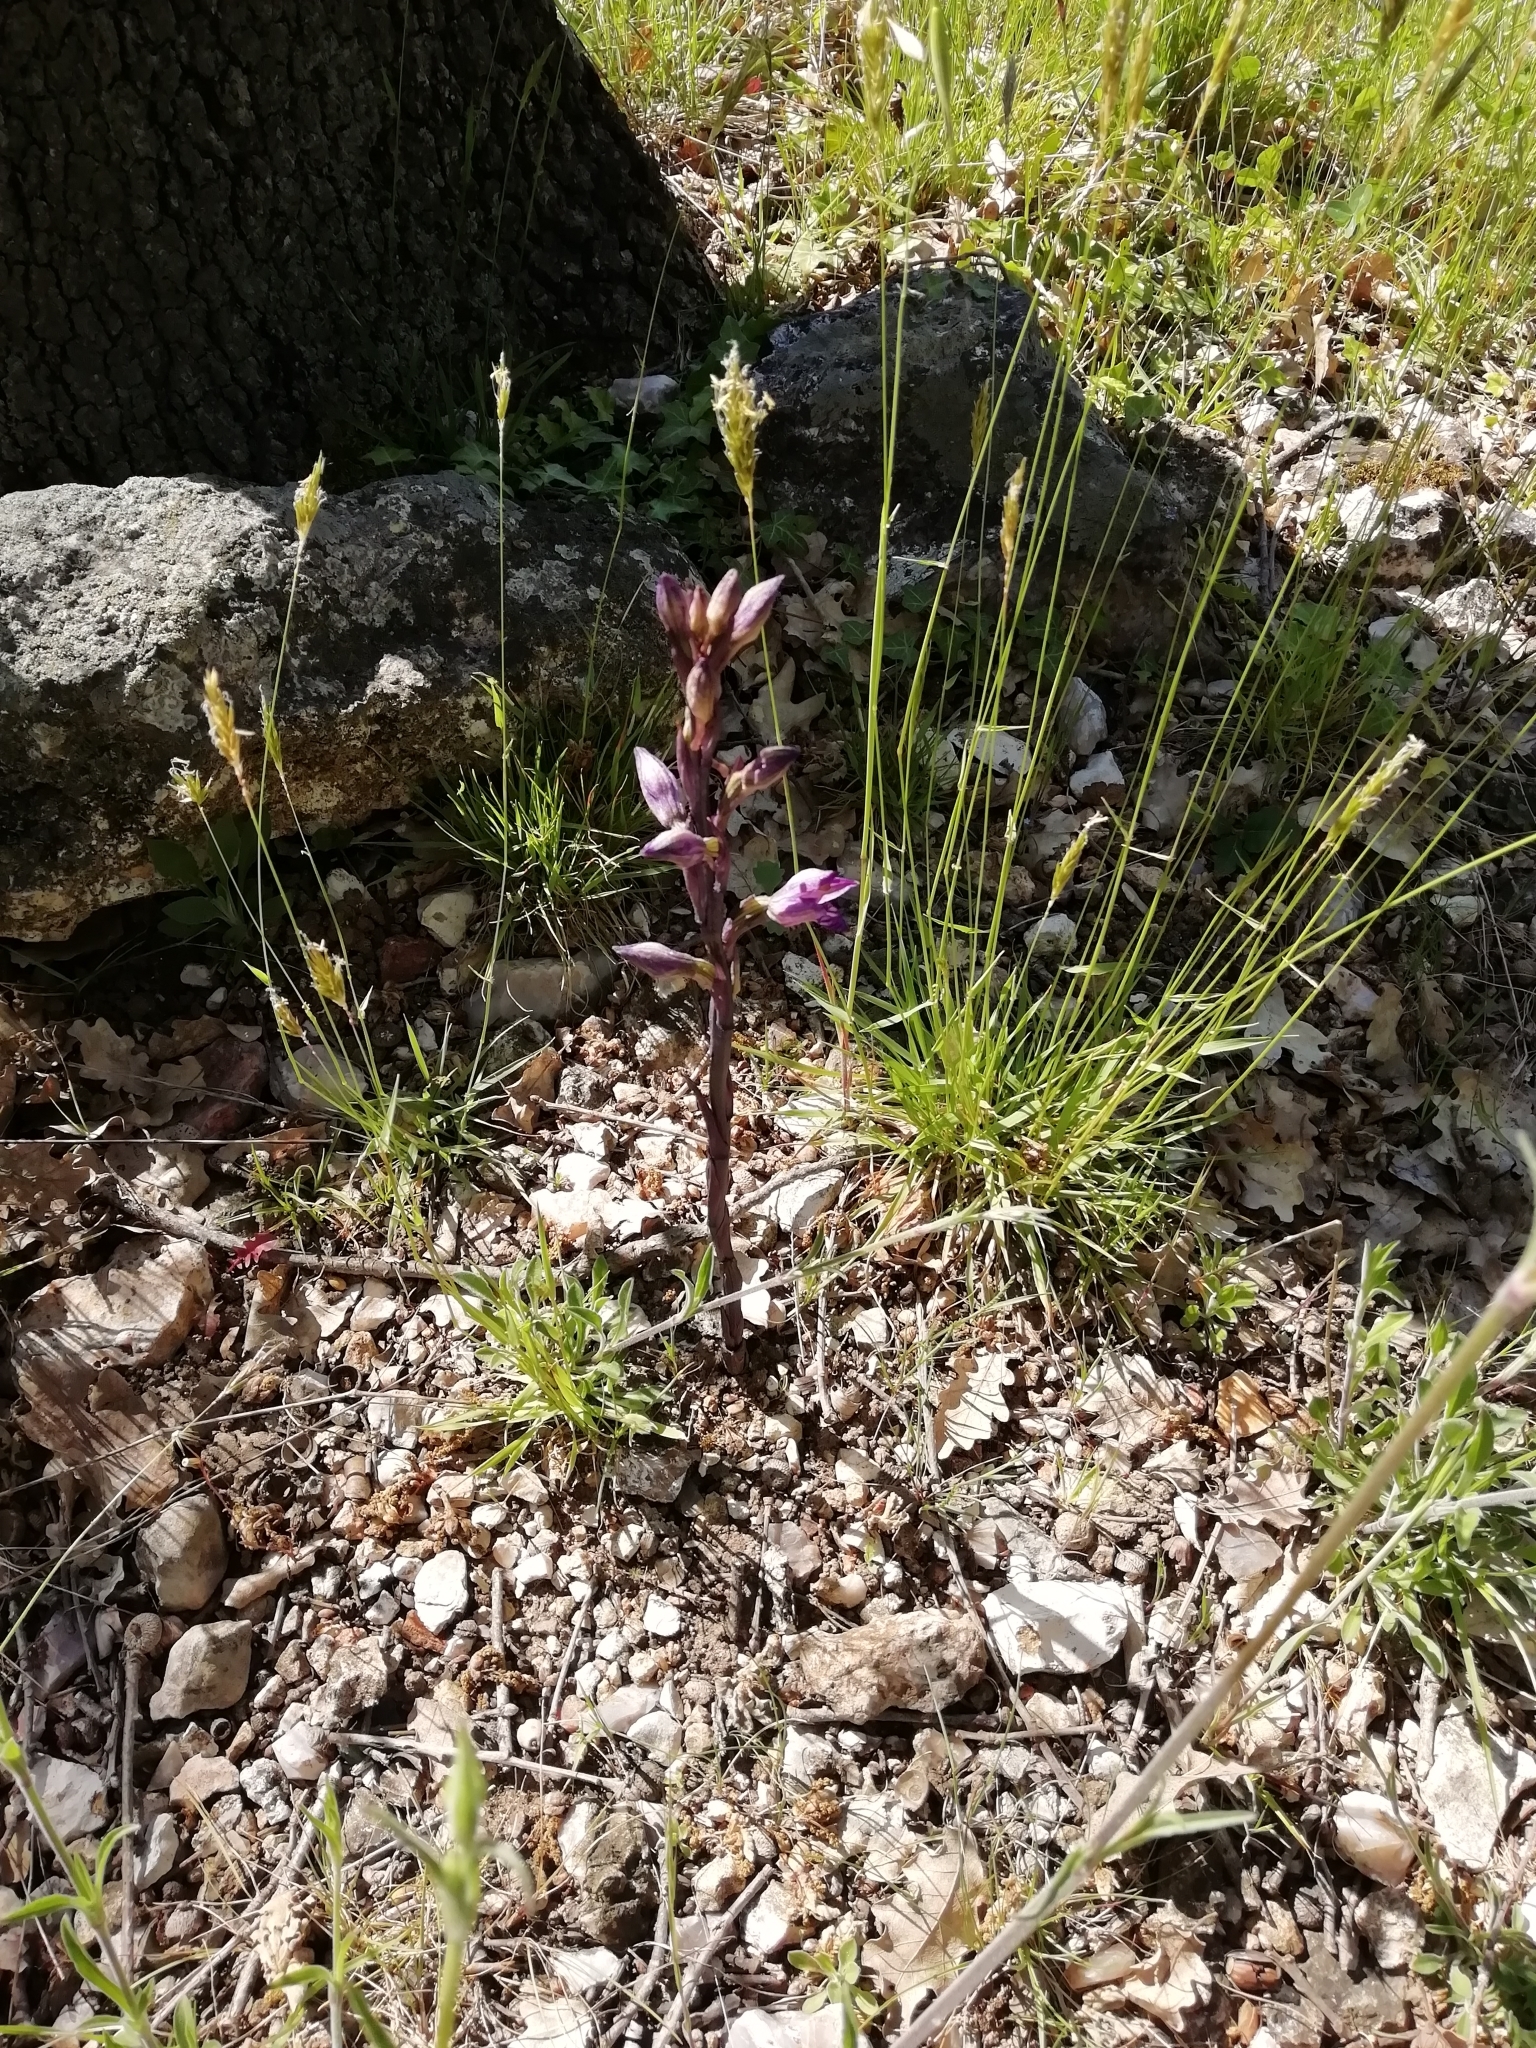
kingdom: Plantae
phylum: Tracheophyta
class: Liliopsida
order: Asparagales
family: Orchidaceae
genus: Limodorum
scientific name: Limodorum abortivum
